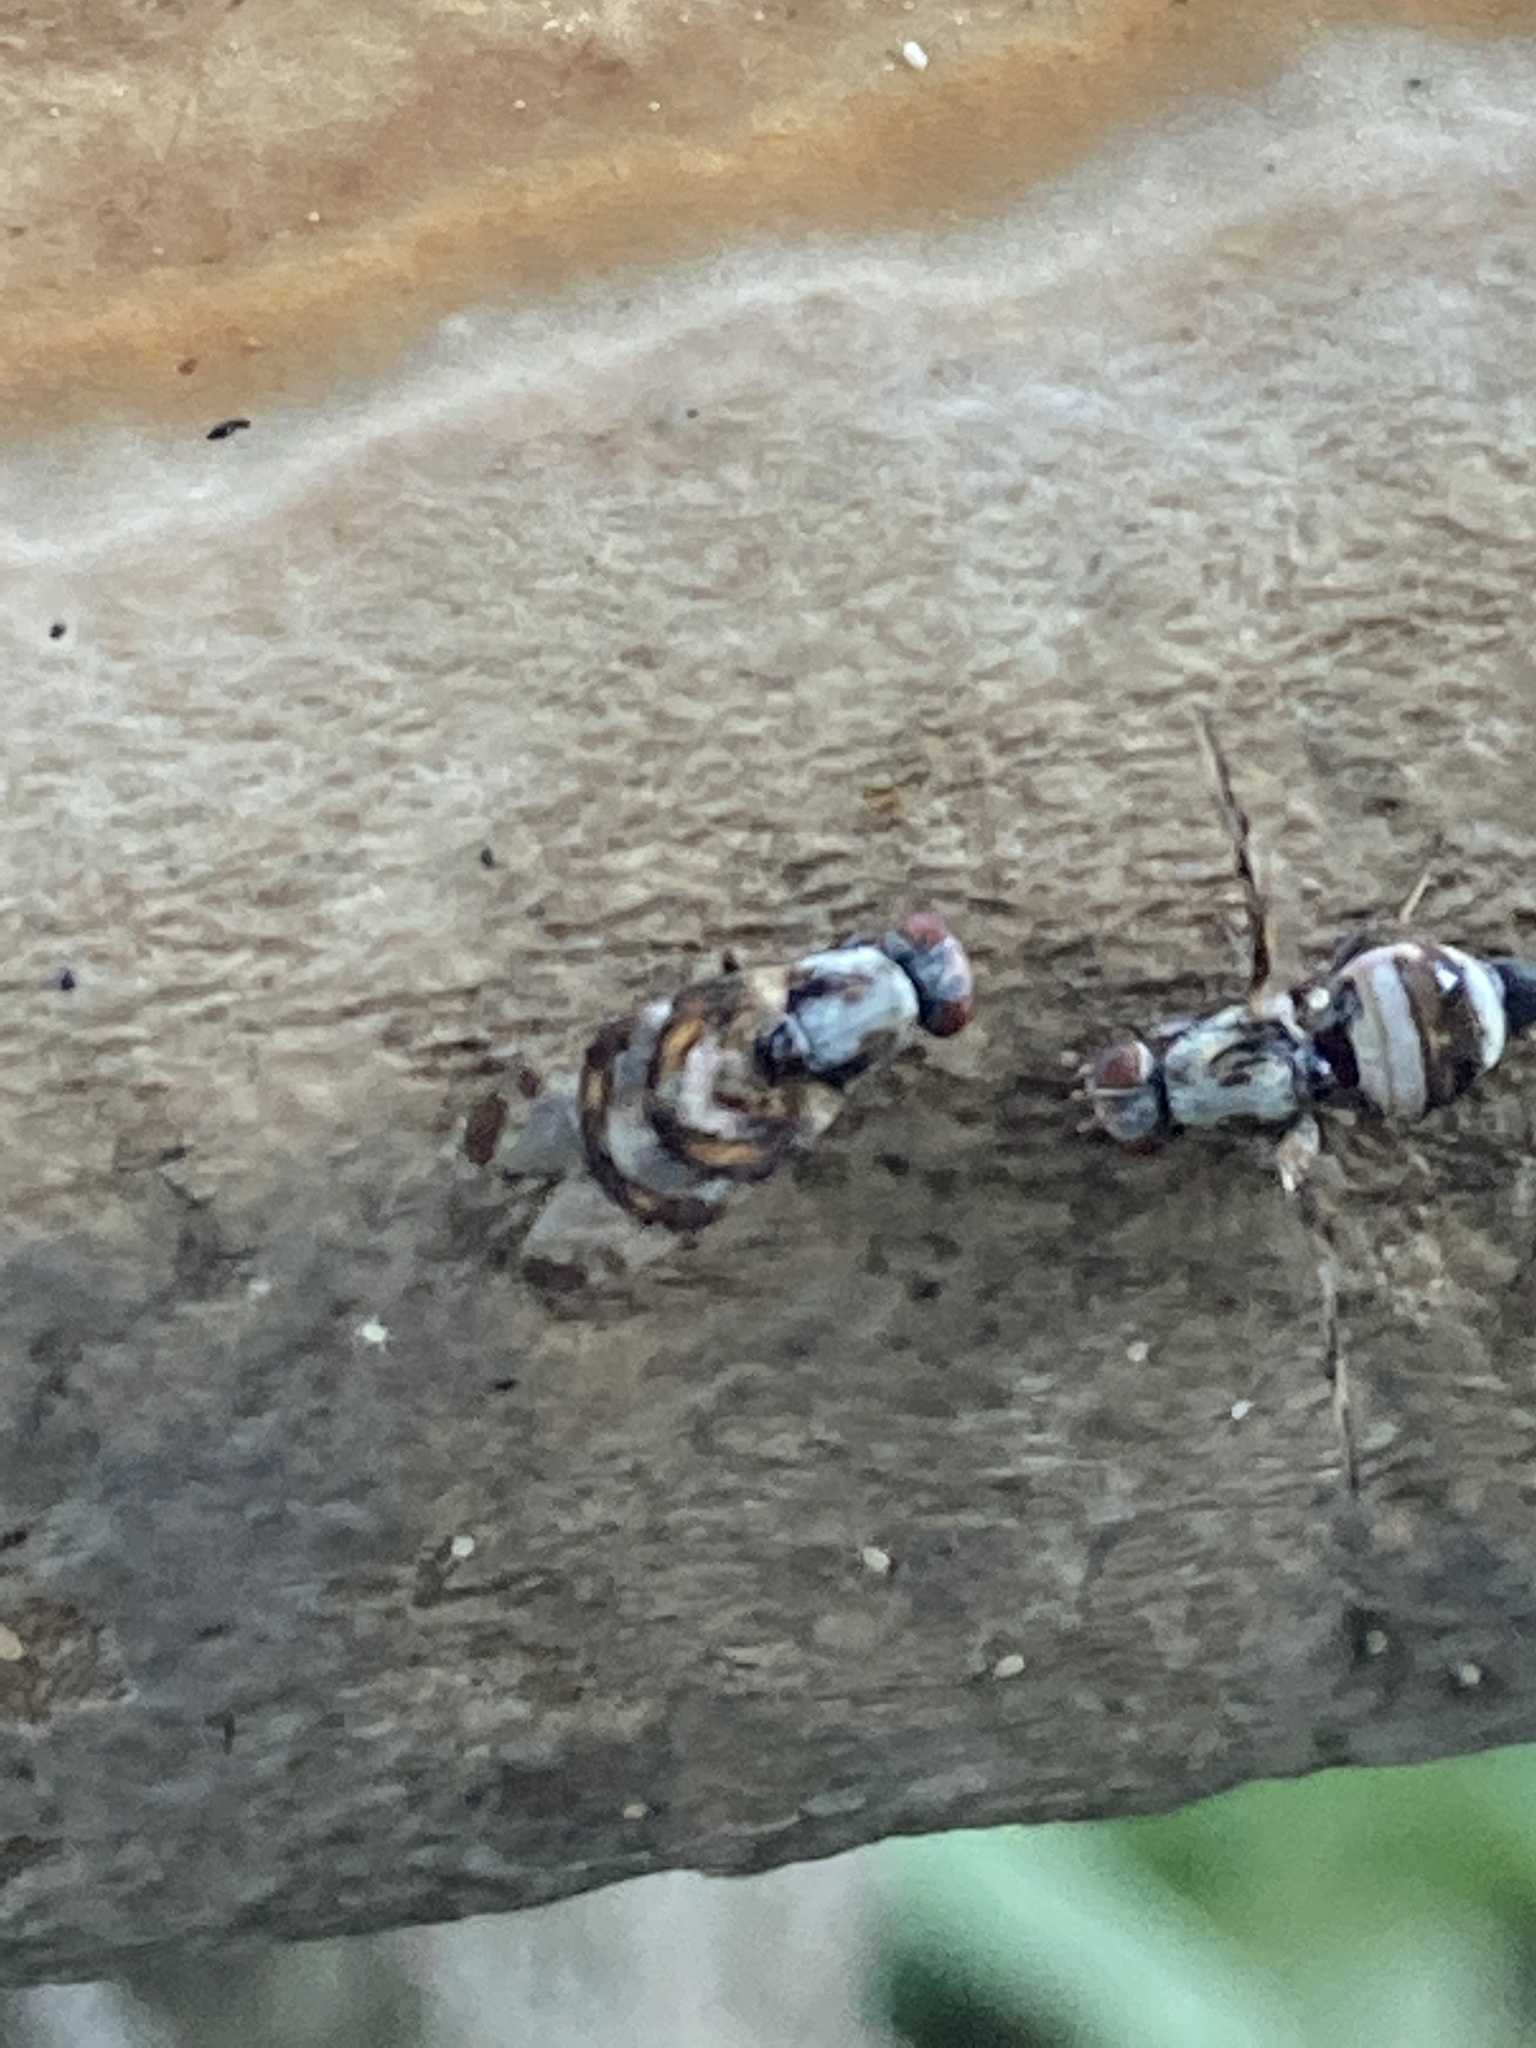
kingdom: Animalia
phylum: Arthropoda
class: Insecta
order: Diptera
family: Ulidiidae
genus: Myennis
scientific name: Myennis octopunctata
